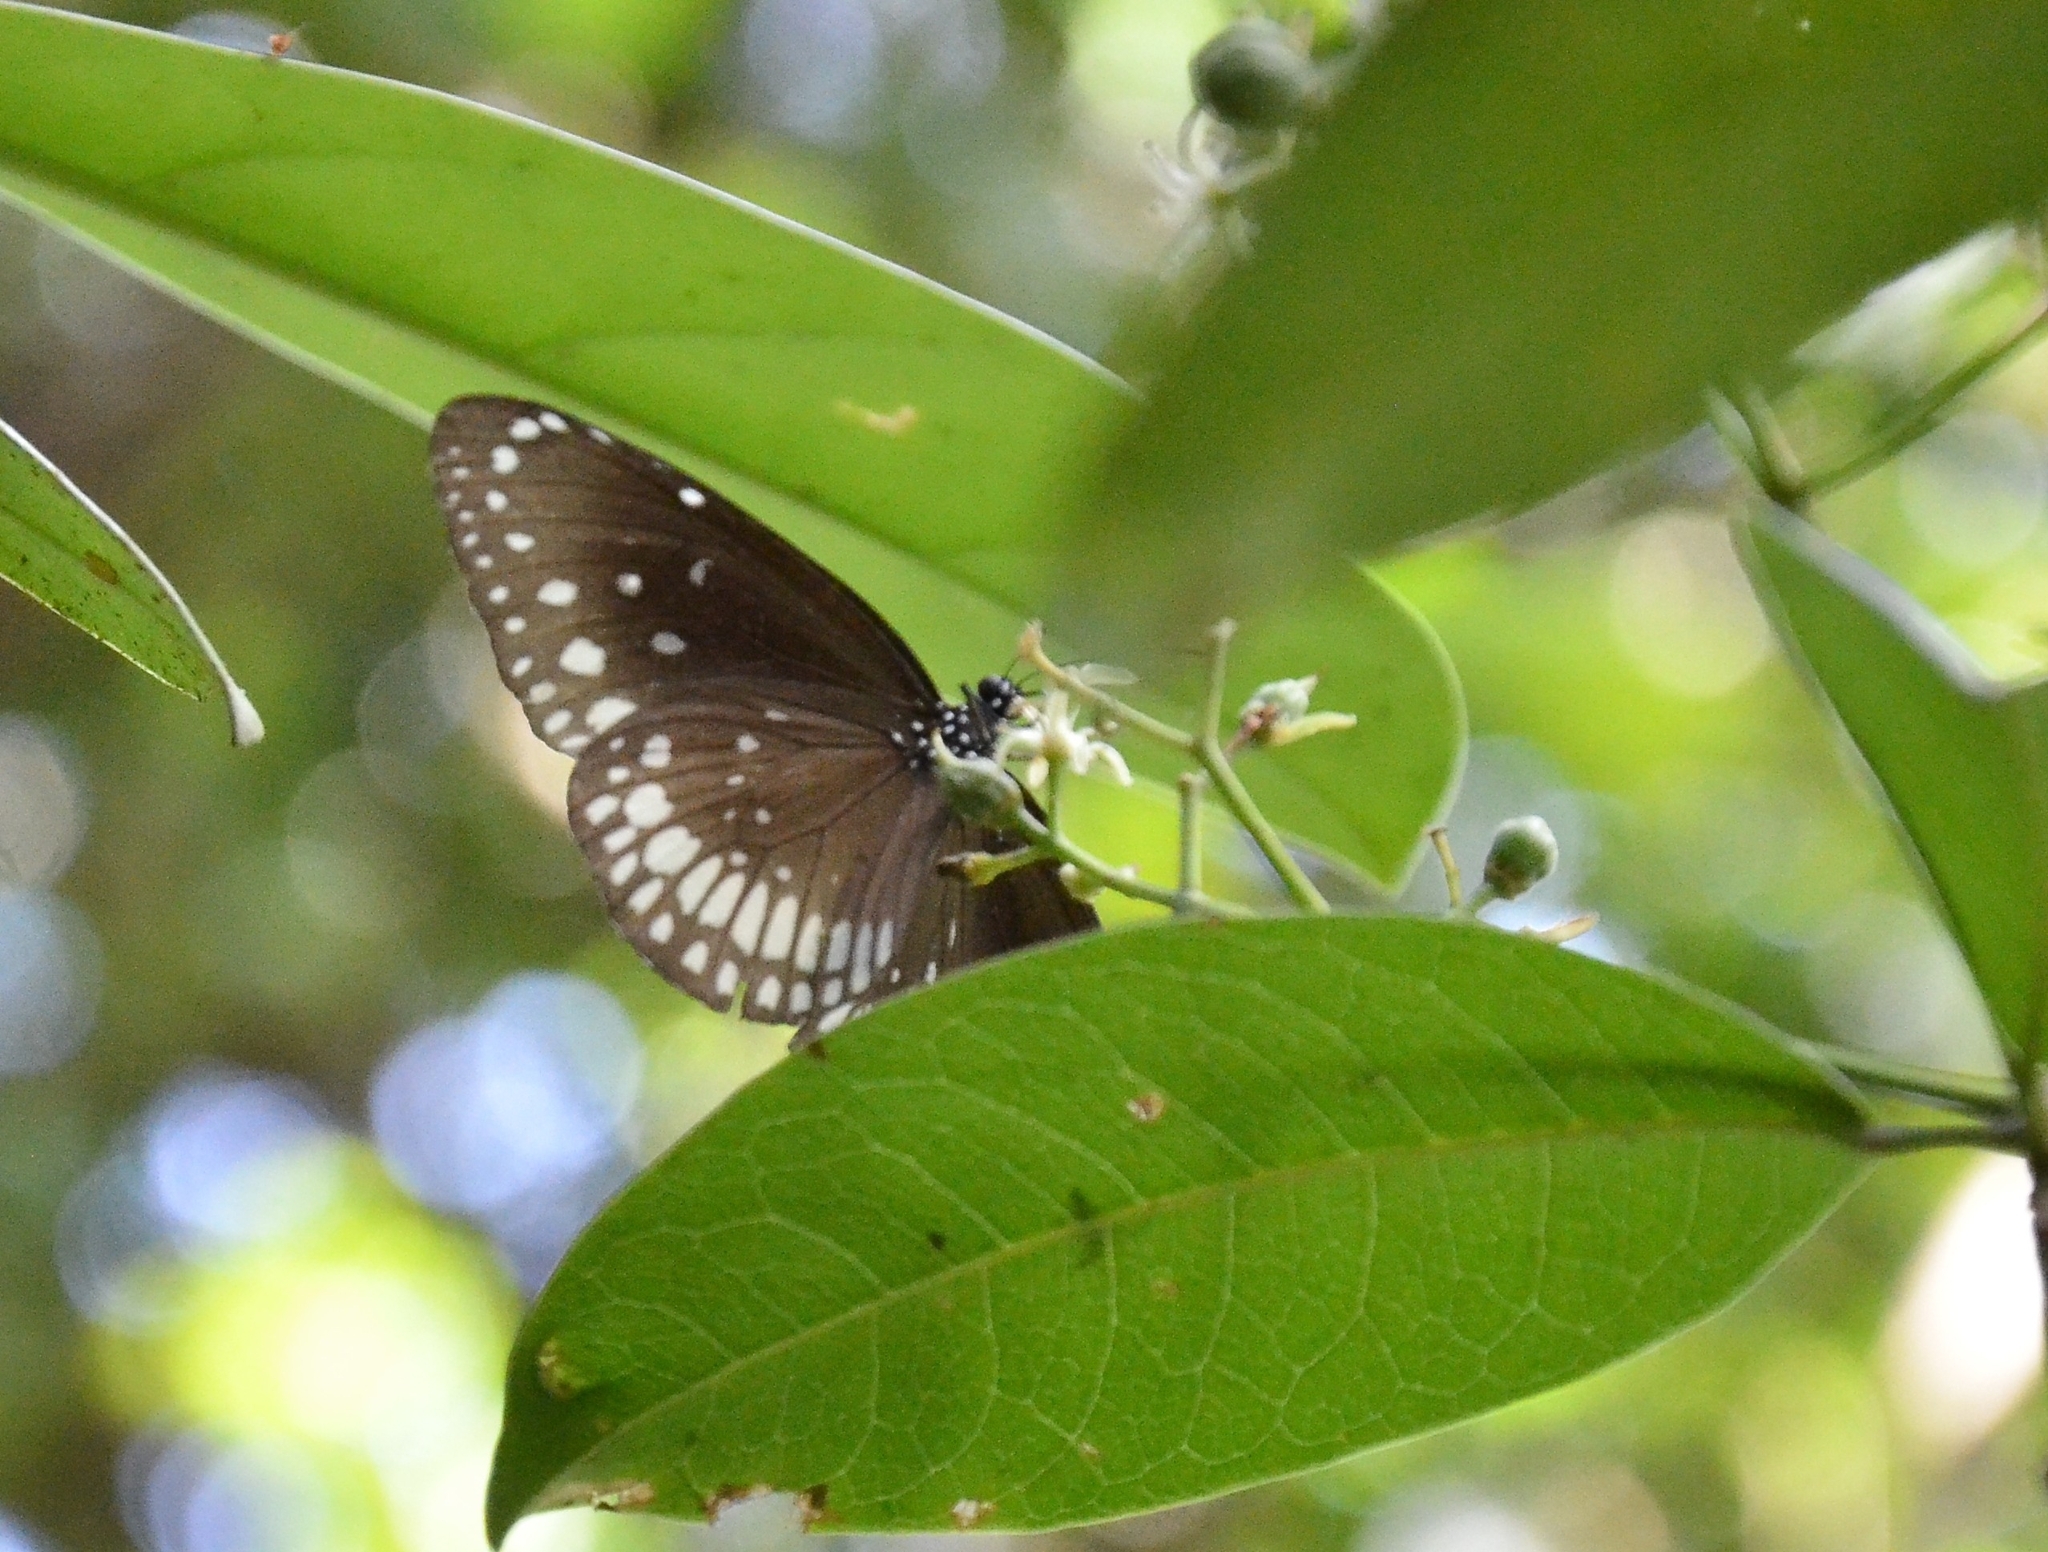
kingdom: Animalia
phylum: Arthropoda
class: Insecta
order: Lepidoptera
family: Nymphalidae
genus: Euploea
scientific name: Euploea core
